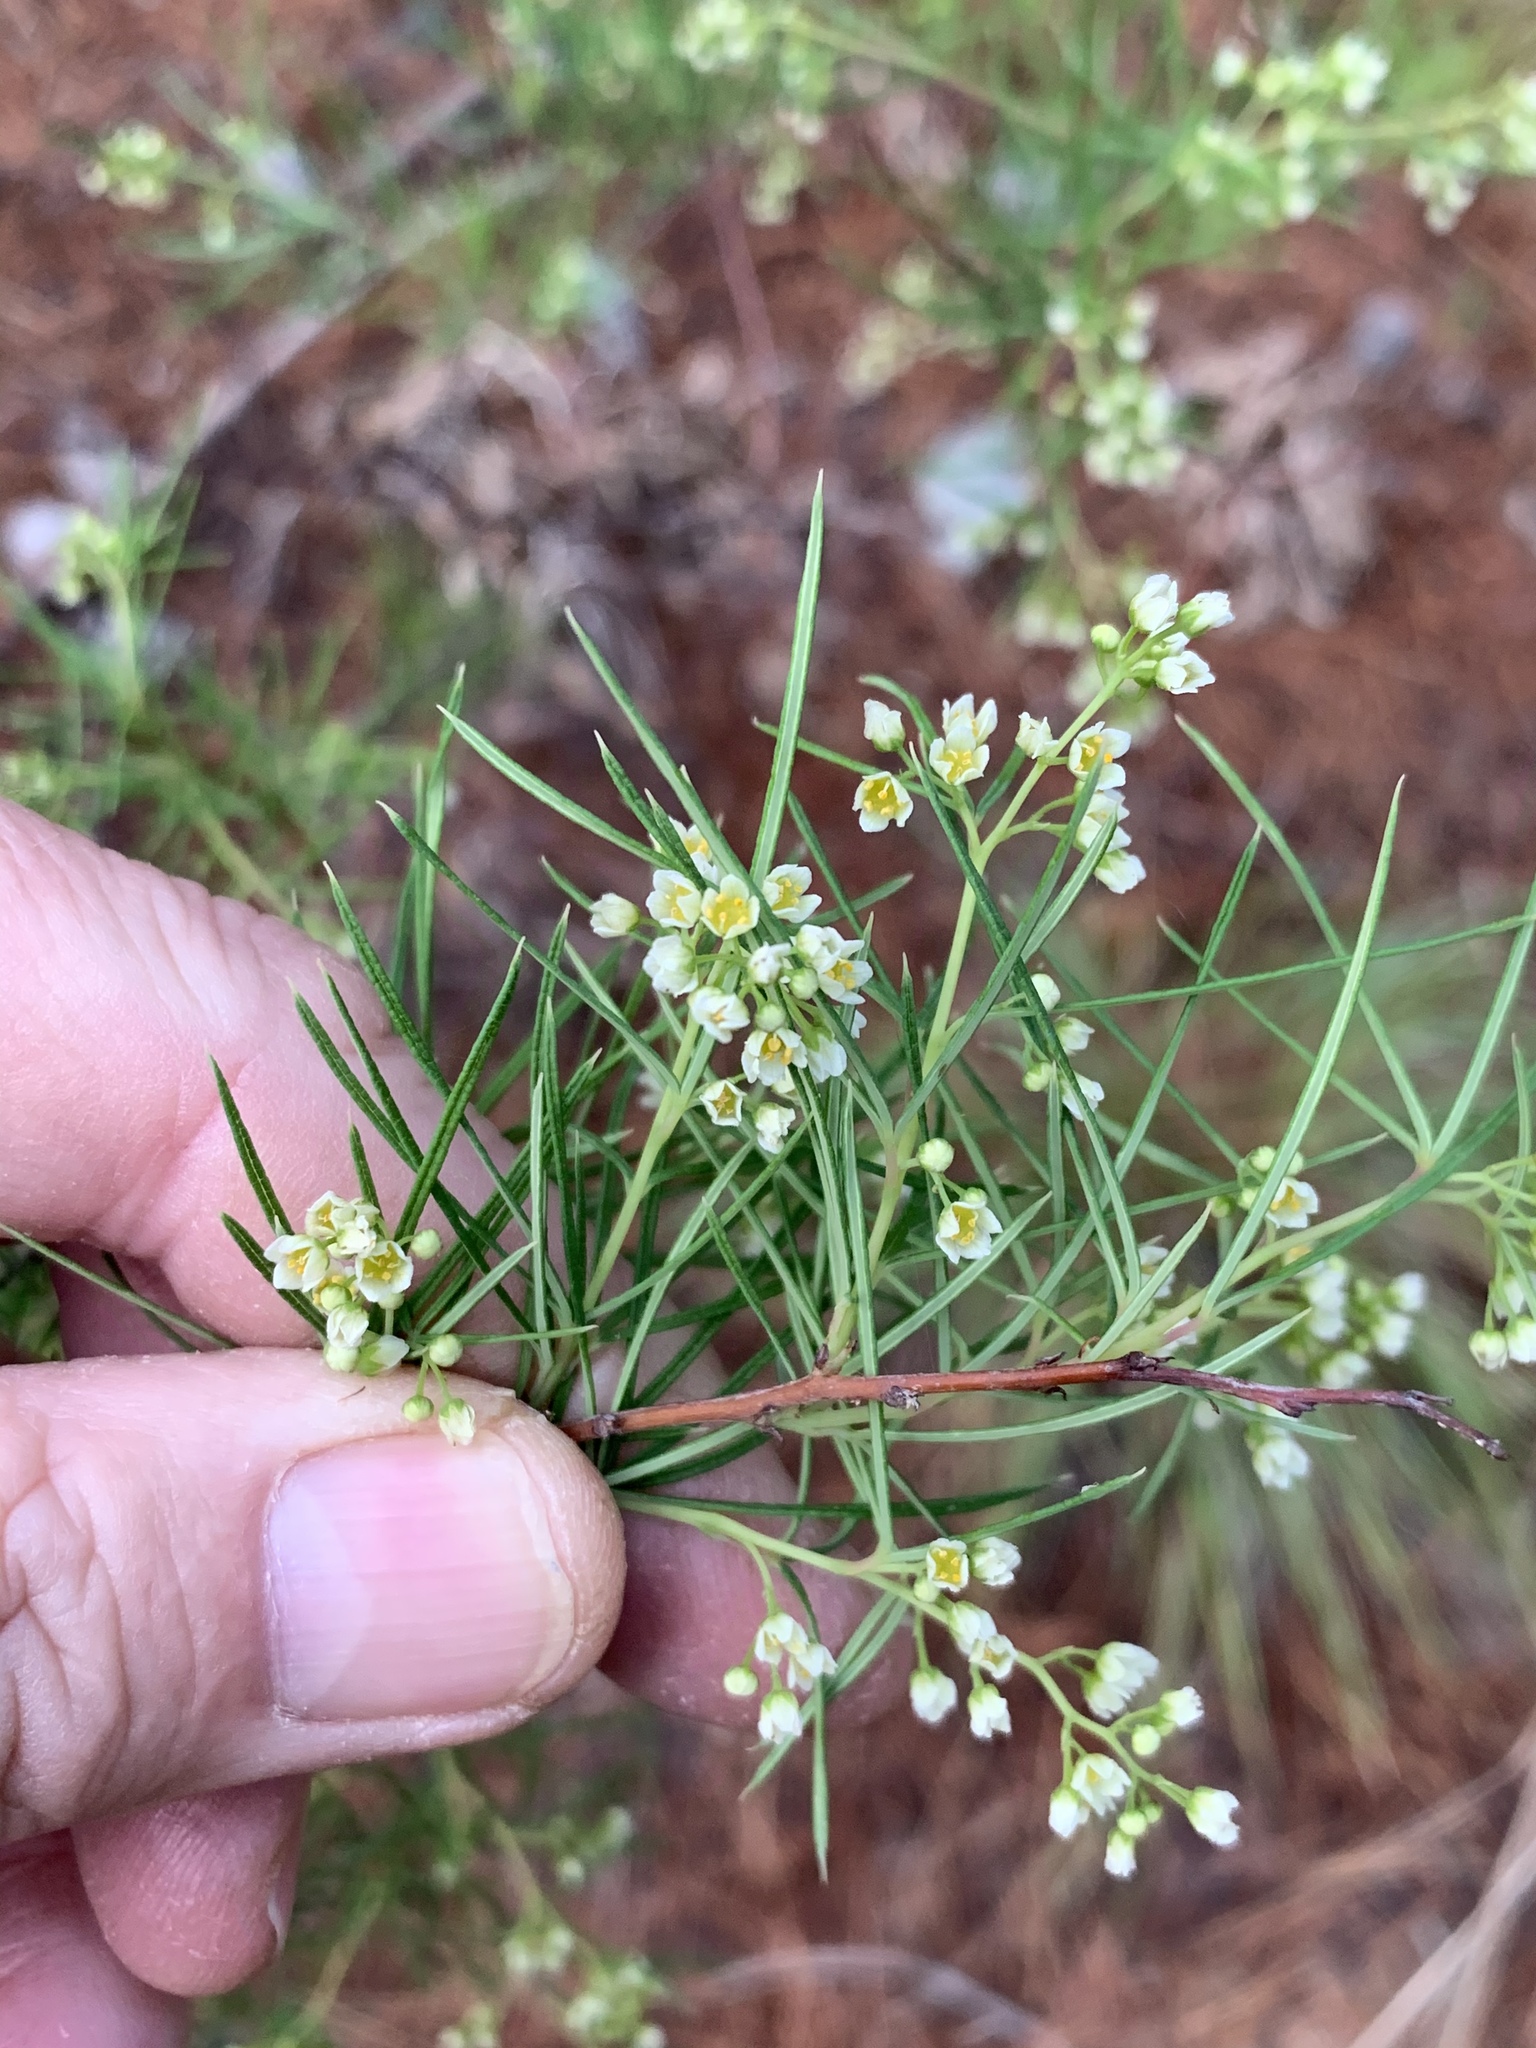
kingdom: Plantae
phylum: Tracheophyta
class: Magnoliopsida
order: Sapindales
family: Anacardiaceae
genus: Searsia
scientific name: Searsia rosmarinifolia
